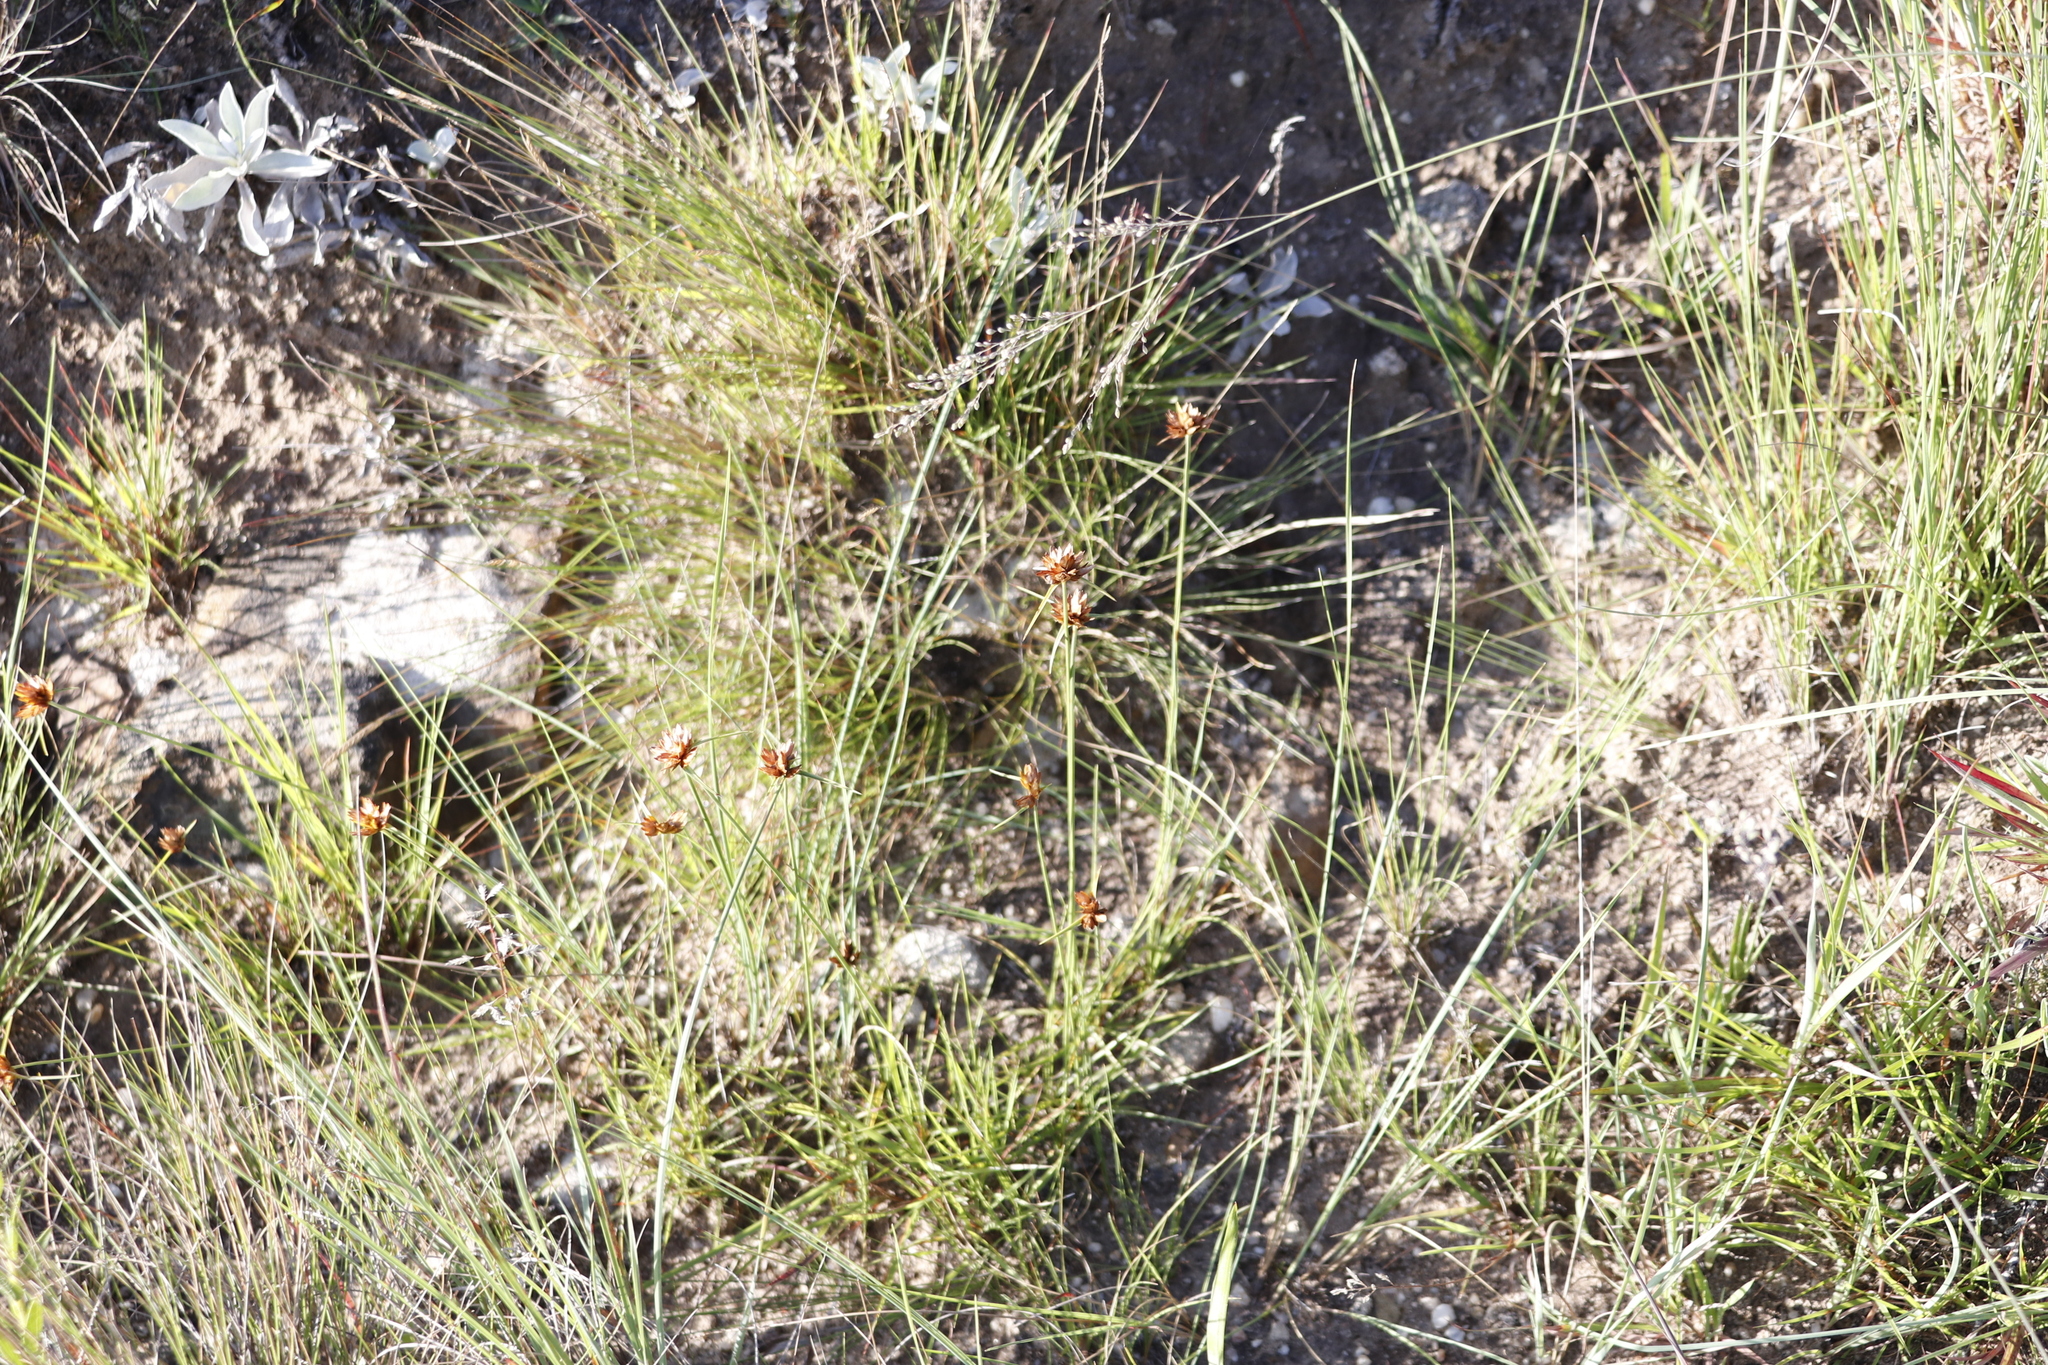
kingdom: Plantae
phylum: Tracheophyta
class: Liliopsida
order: Poales
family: Cyperaceae
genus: Cyperus
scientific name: Cyperus sphaerocephalus
